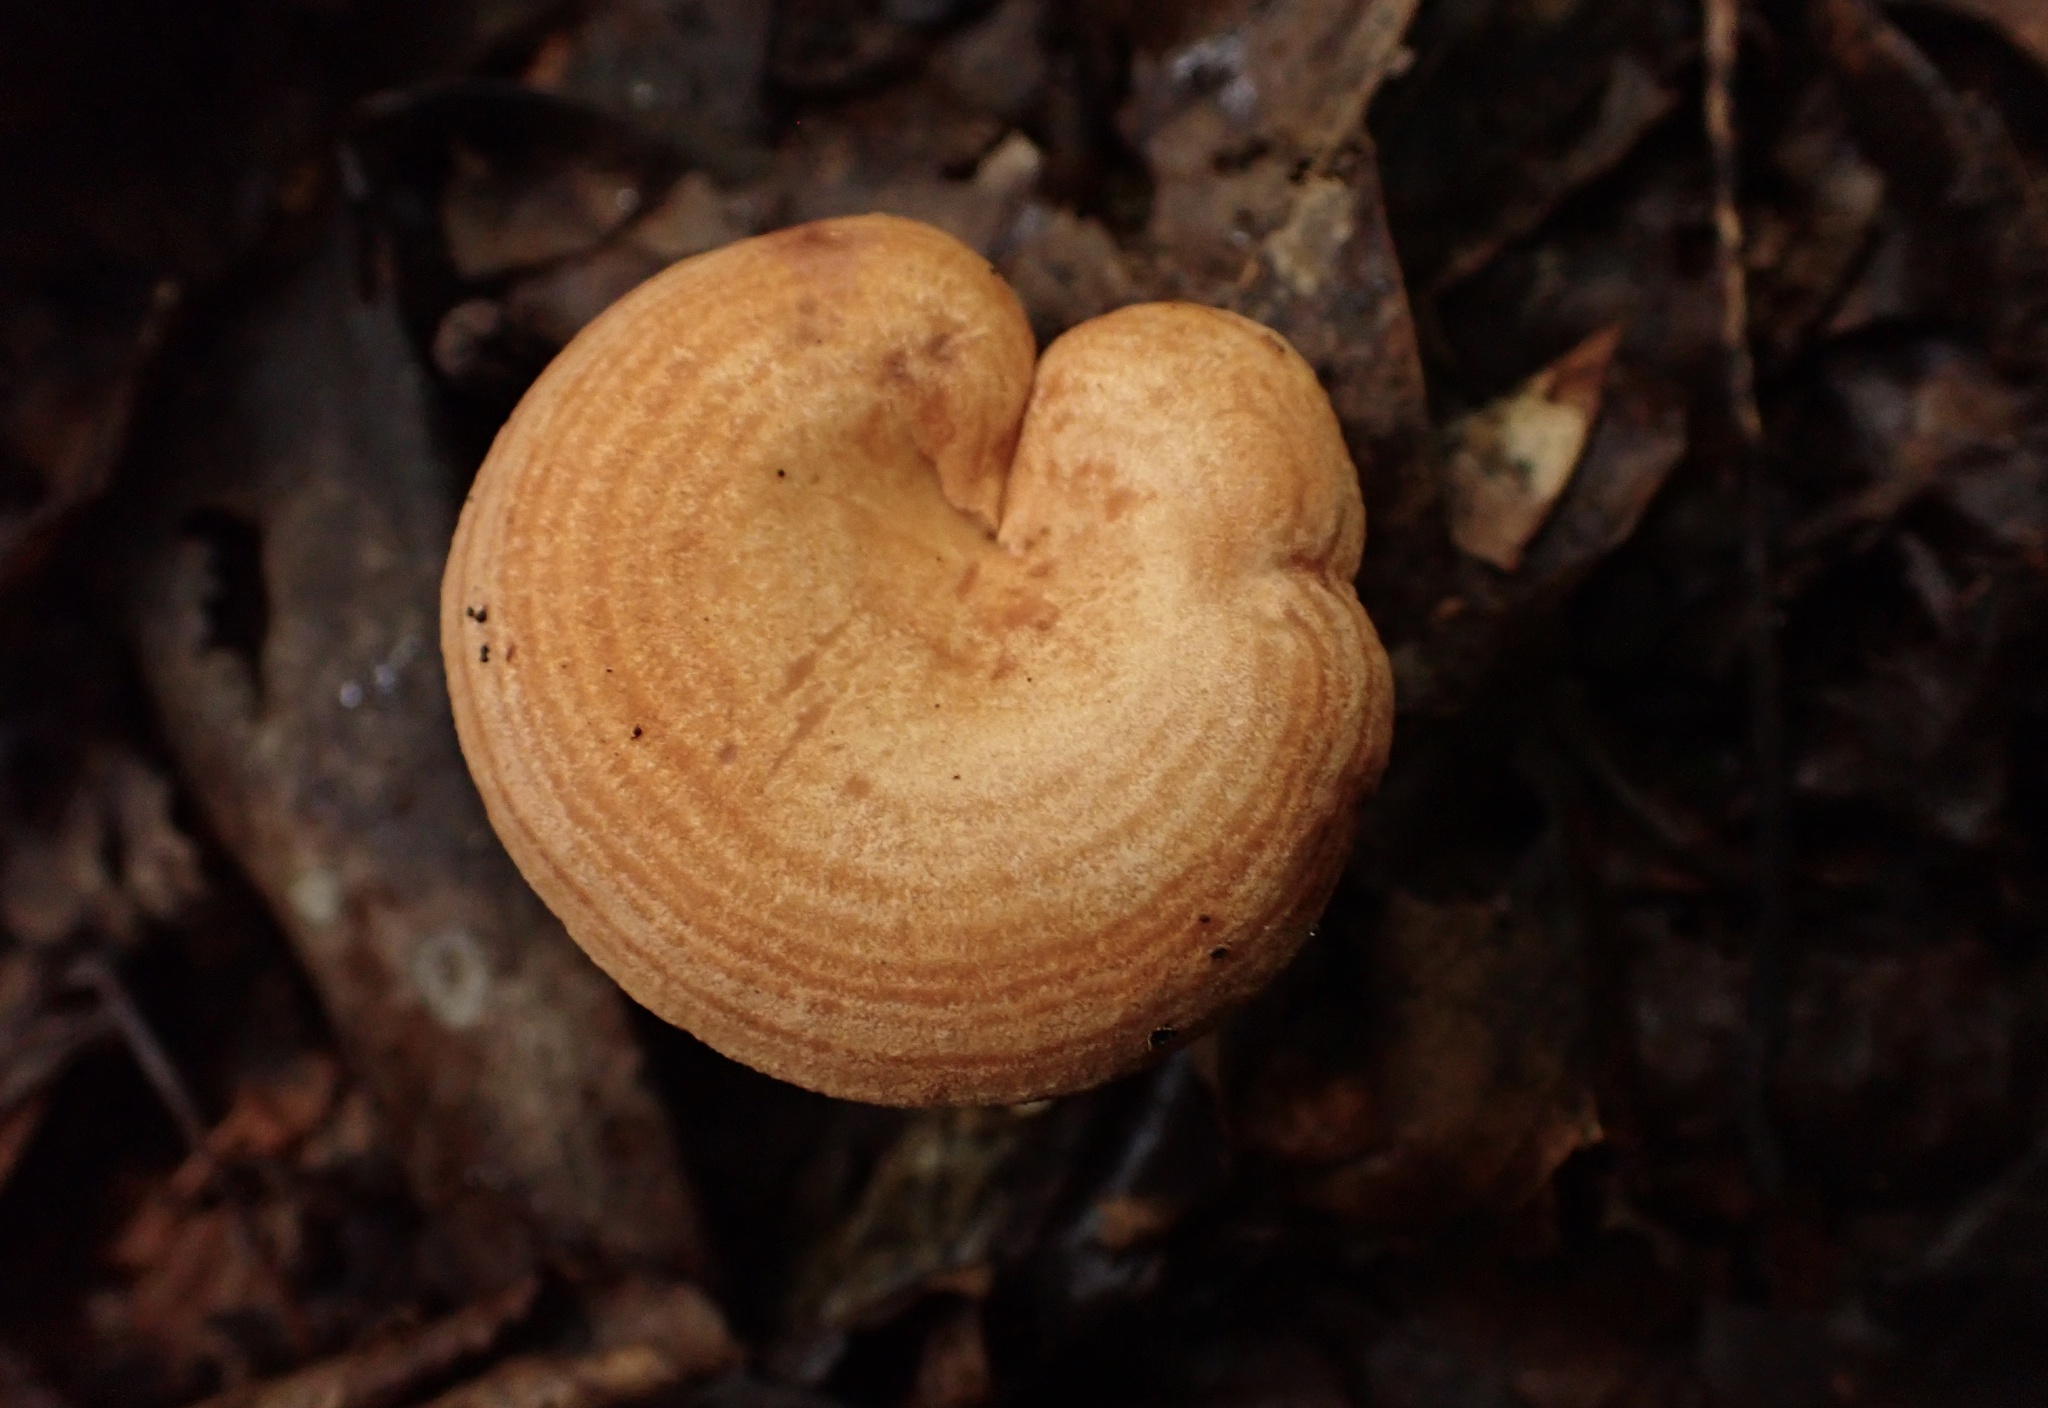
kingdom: Fungi
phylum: Basidiomycota
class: Agaricomycetes
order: Russulales
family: Russulaceae
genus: Lactarius
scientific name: Lactarius peckii
